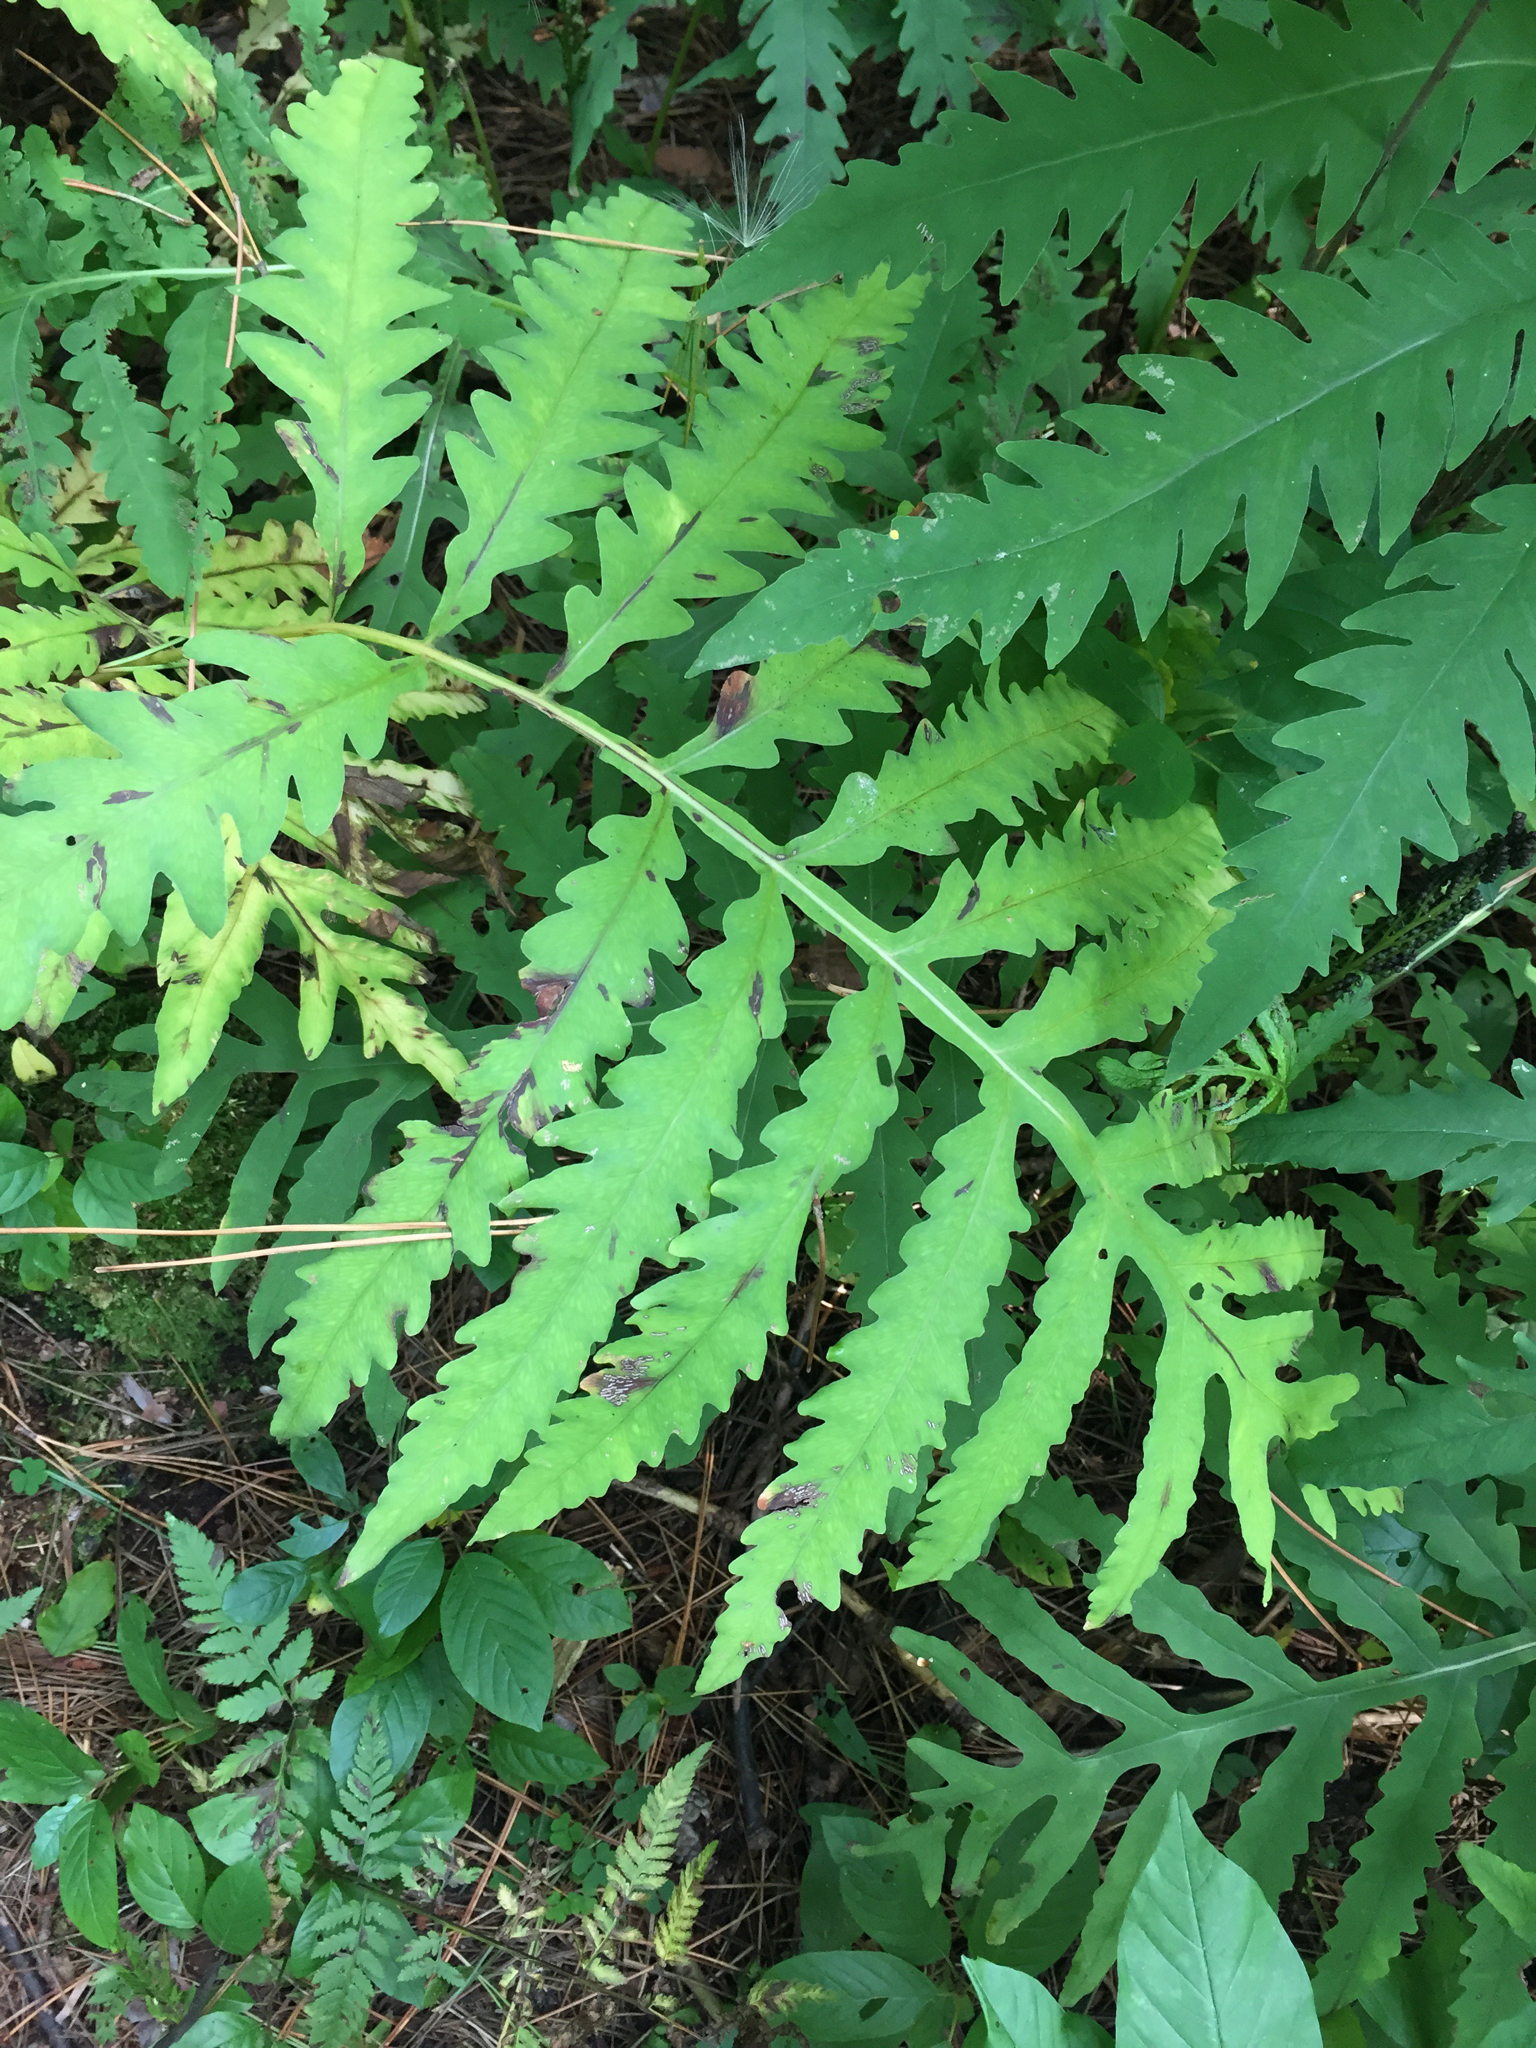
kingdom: Plantae
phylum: Tracheophyta
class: Polypodiopsida
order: Polypodiales
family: Onocleaceae
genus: Onoclea
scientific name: Onoclea sensibilis
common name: Sensitive fern
